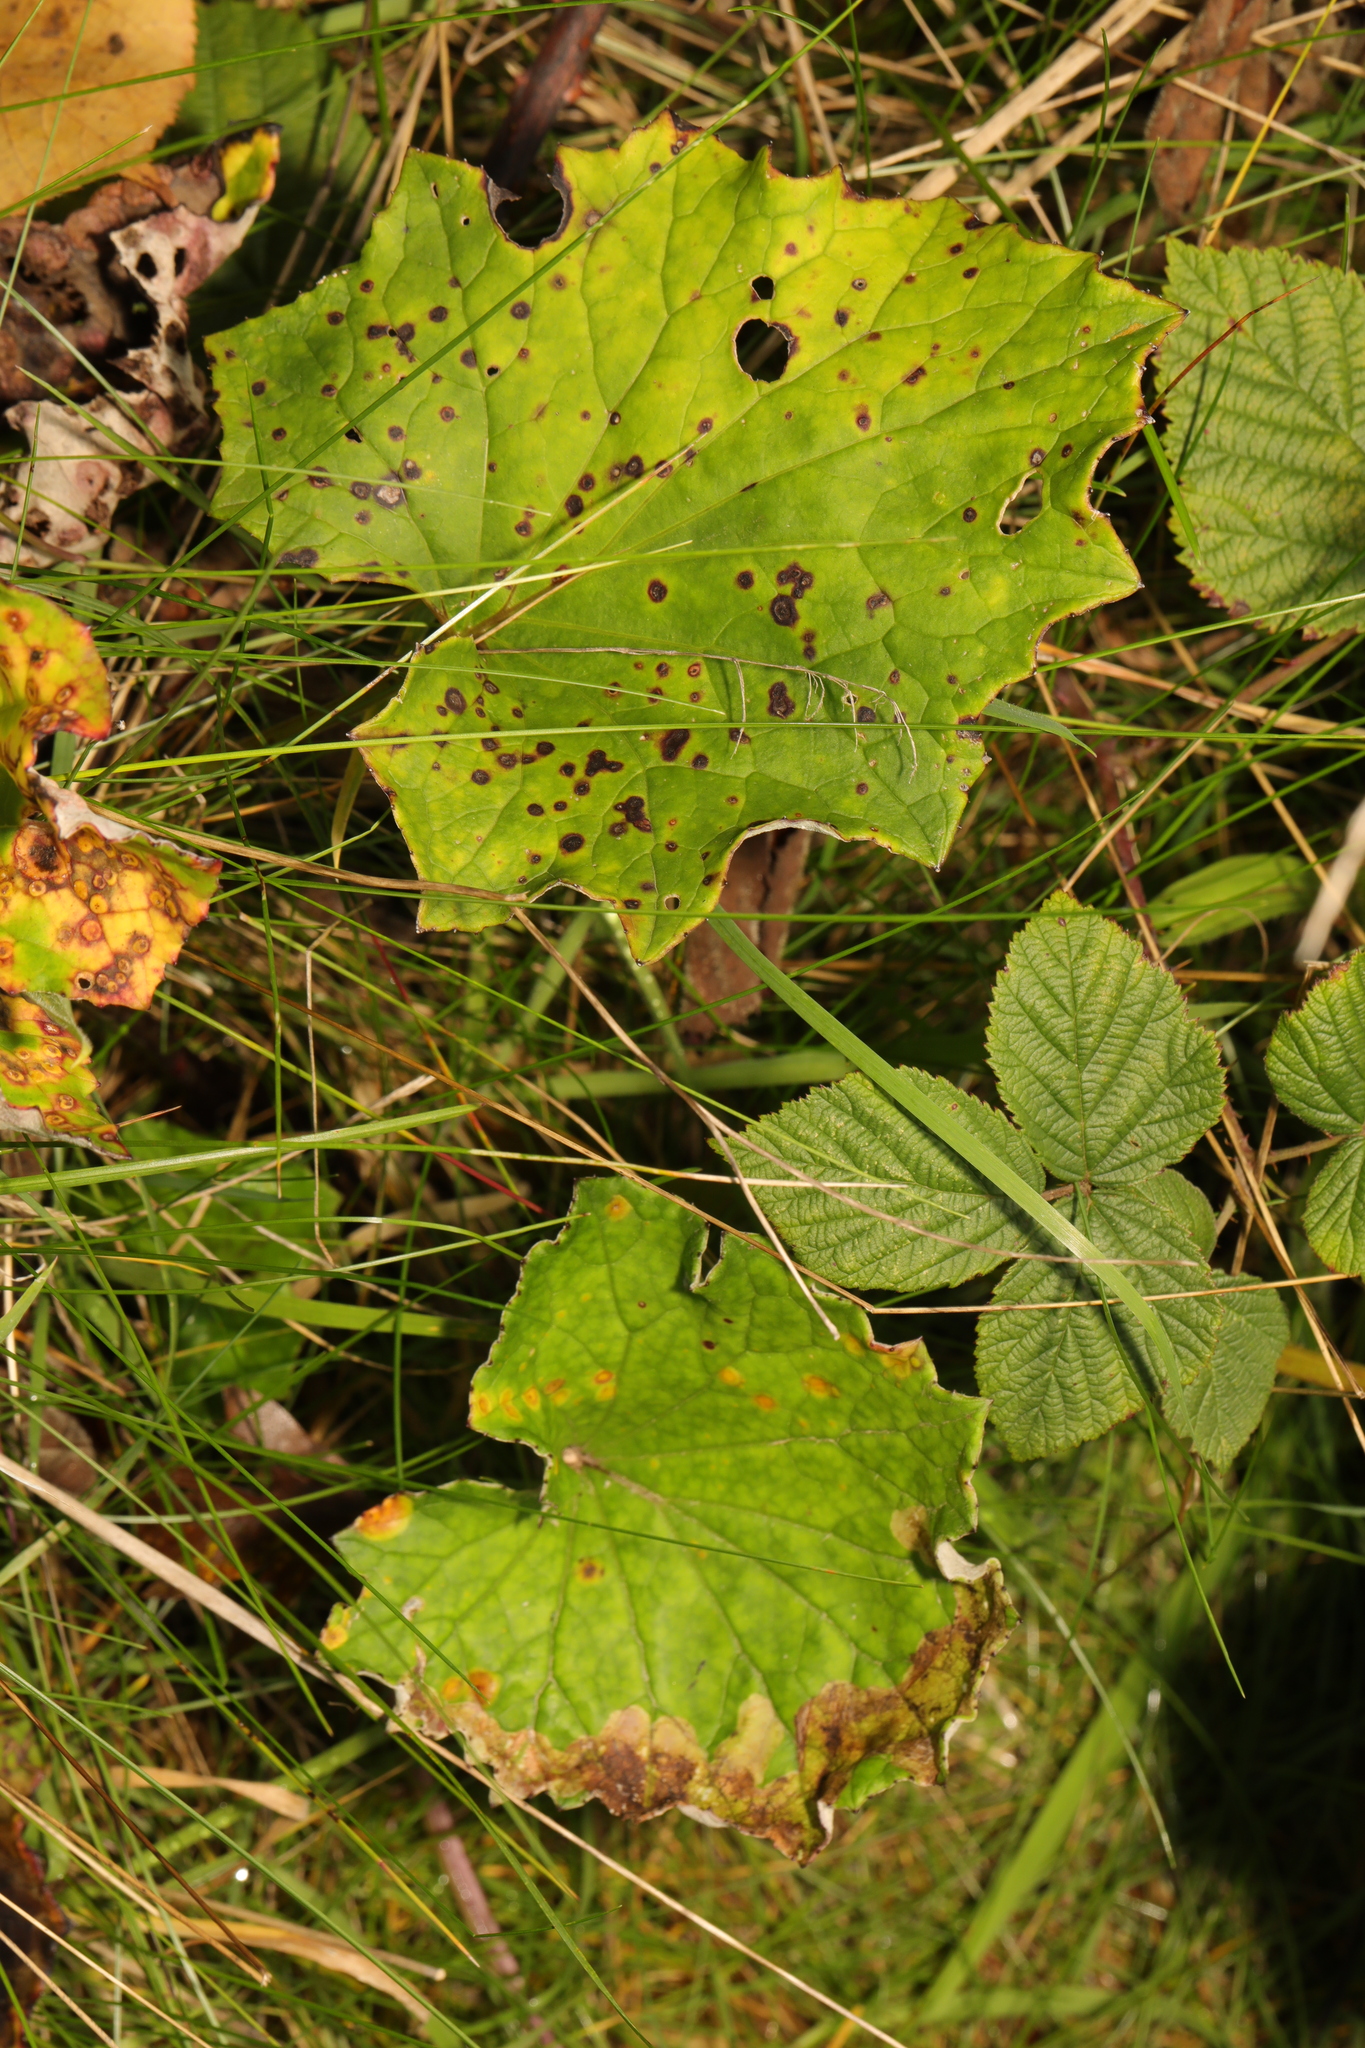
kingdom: Plantae
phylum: Tracheophyta
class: Magnoliopsida
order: Asterales
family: Asteraceae
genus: Tussilago
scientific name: Tussilago farfara
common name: Coltsfoot
